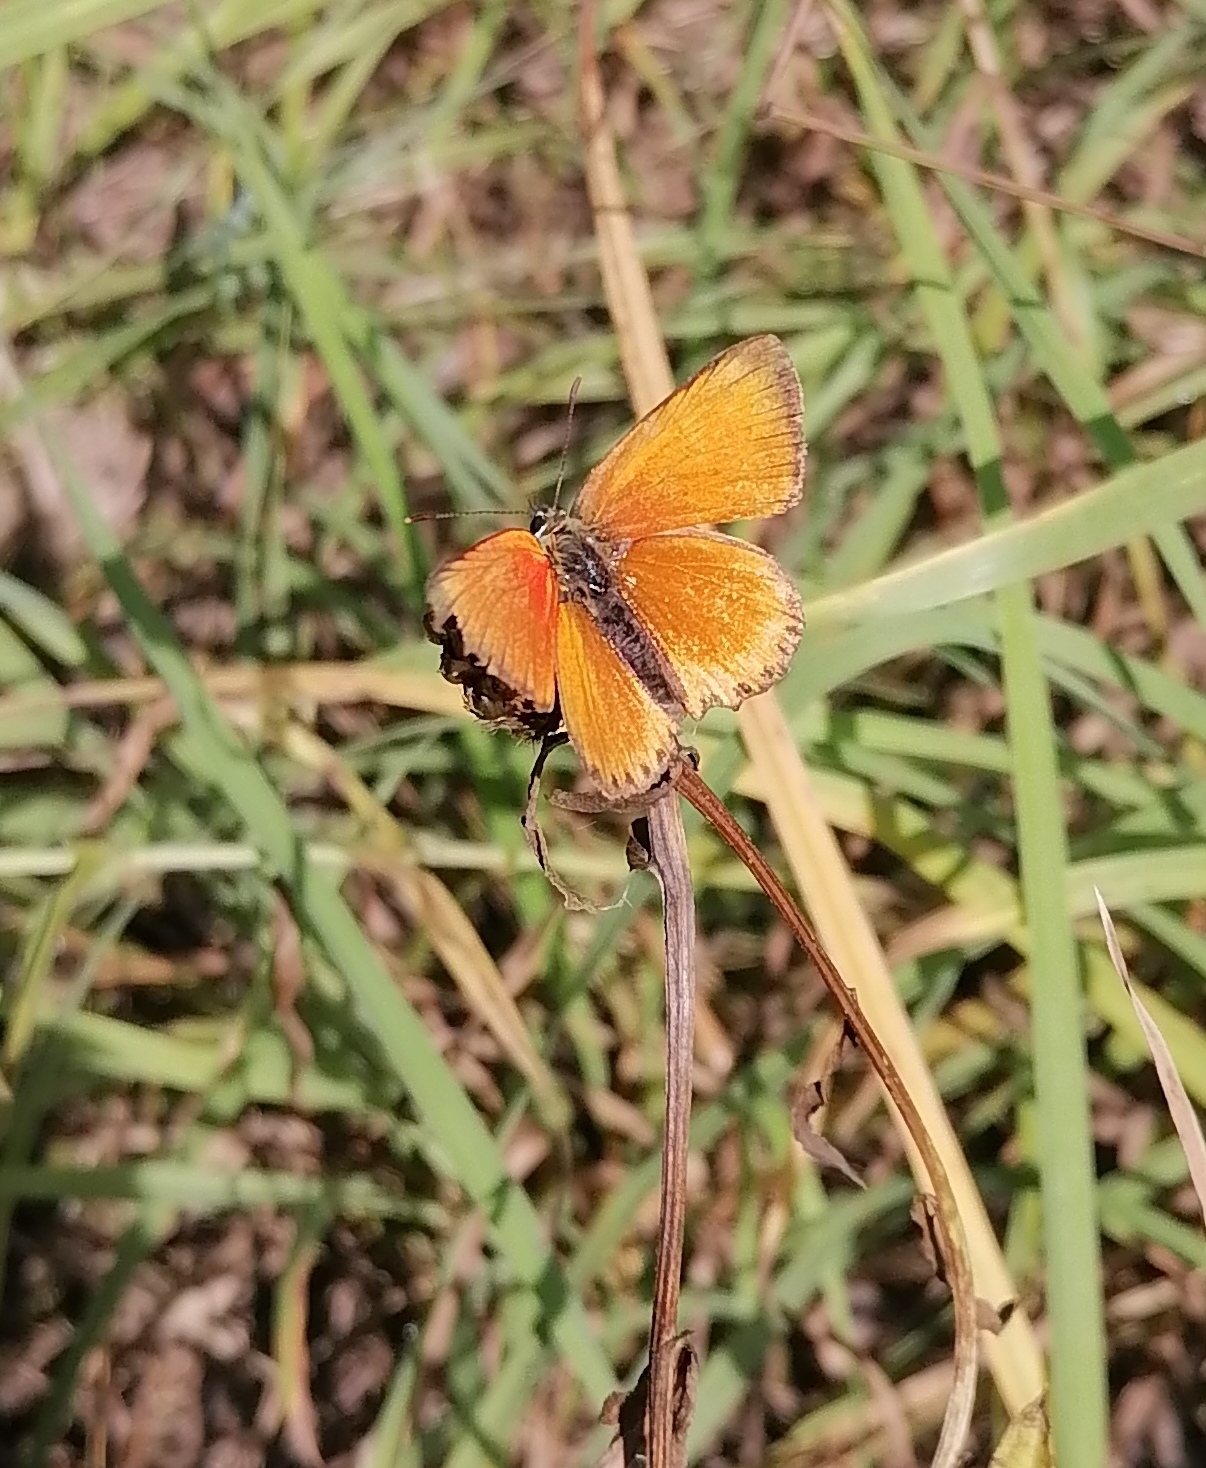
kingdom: Animalia
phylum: Arthropoda
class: Insecta
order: Lepidoptera
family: Lycaenidae
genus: Lycaena
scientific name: Lycaena virgaureae
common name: Scarce copper
